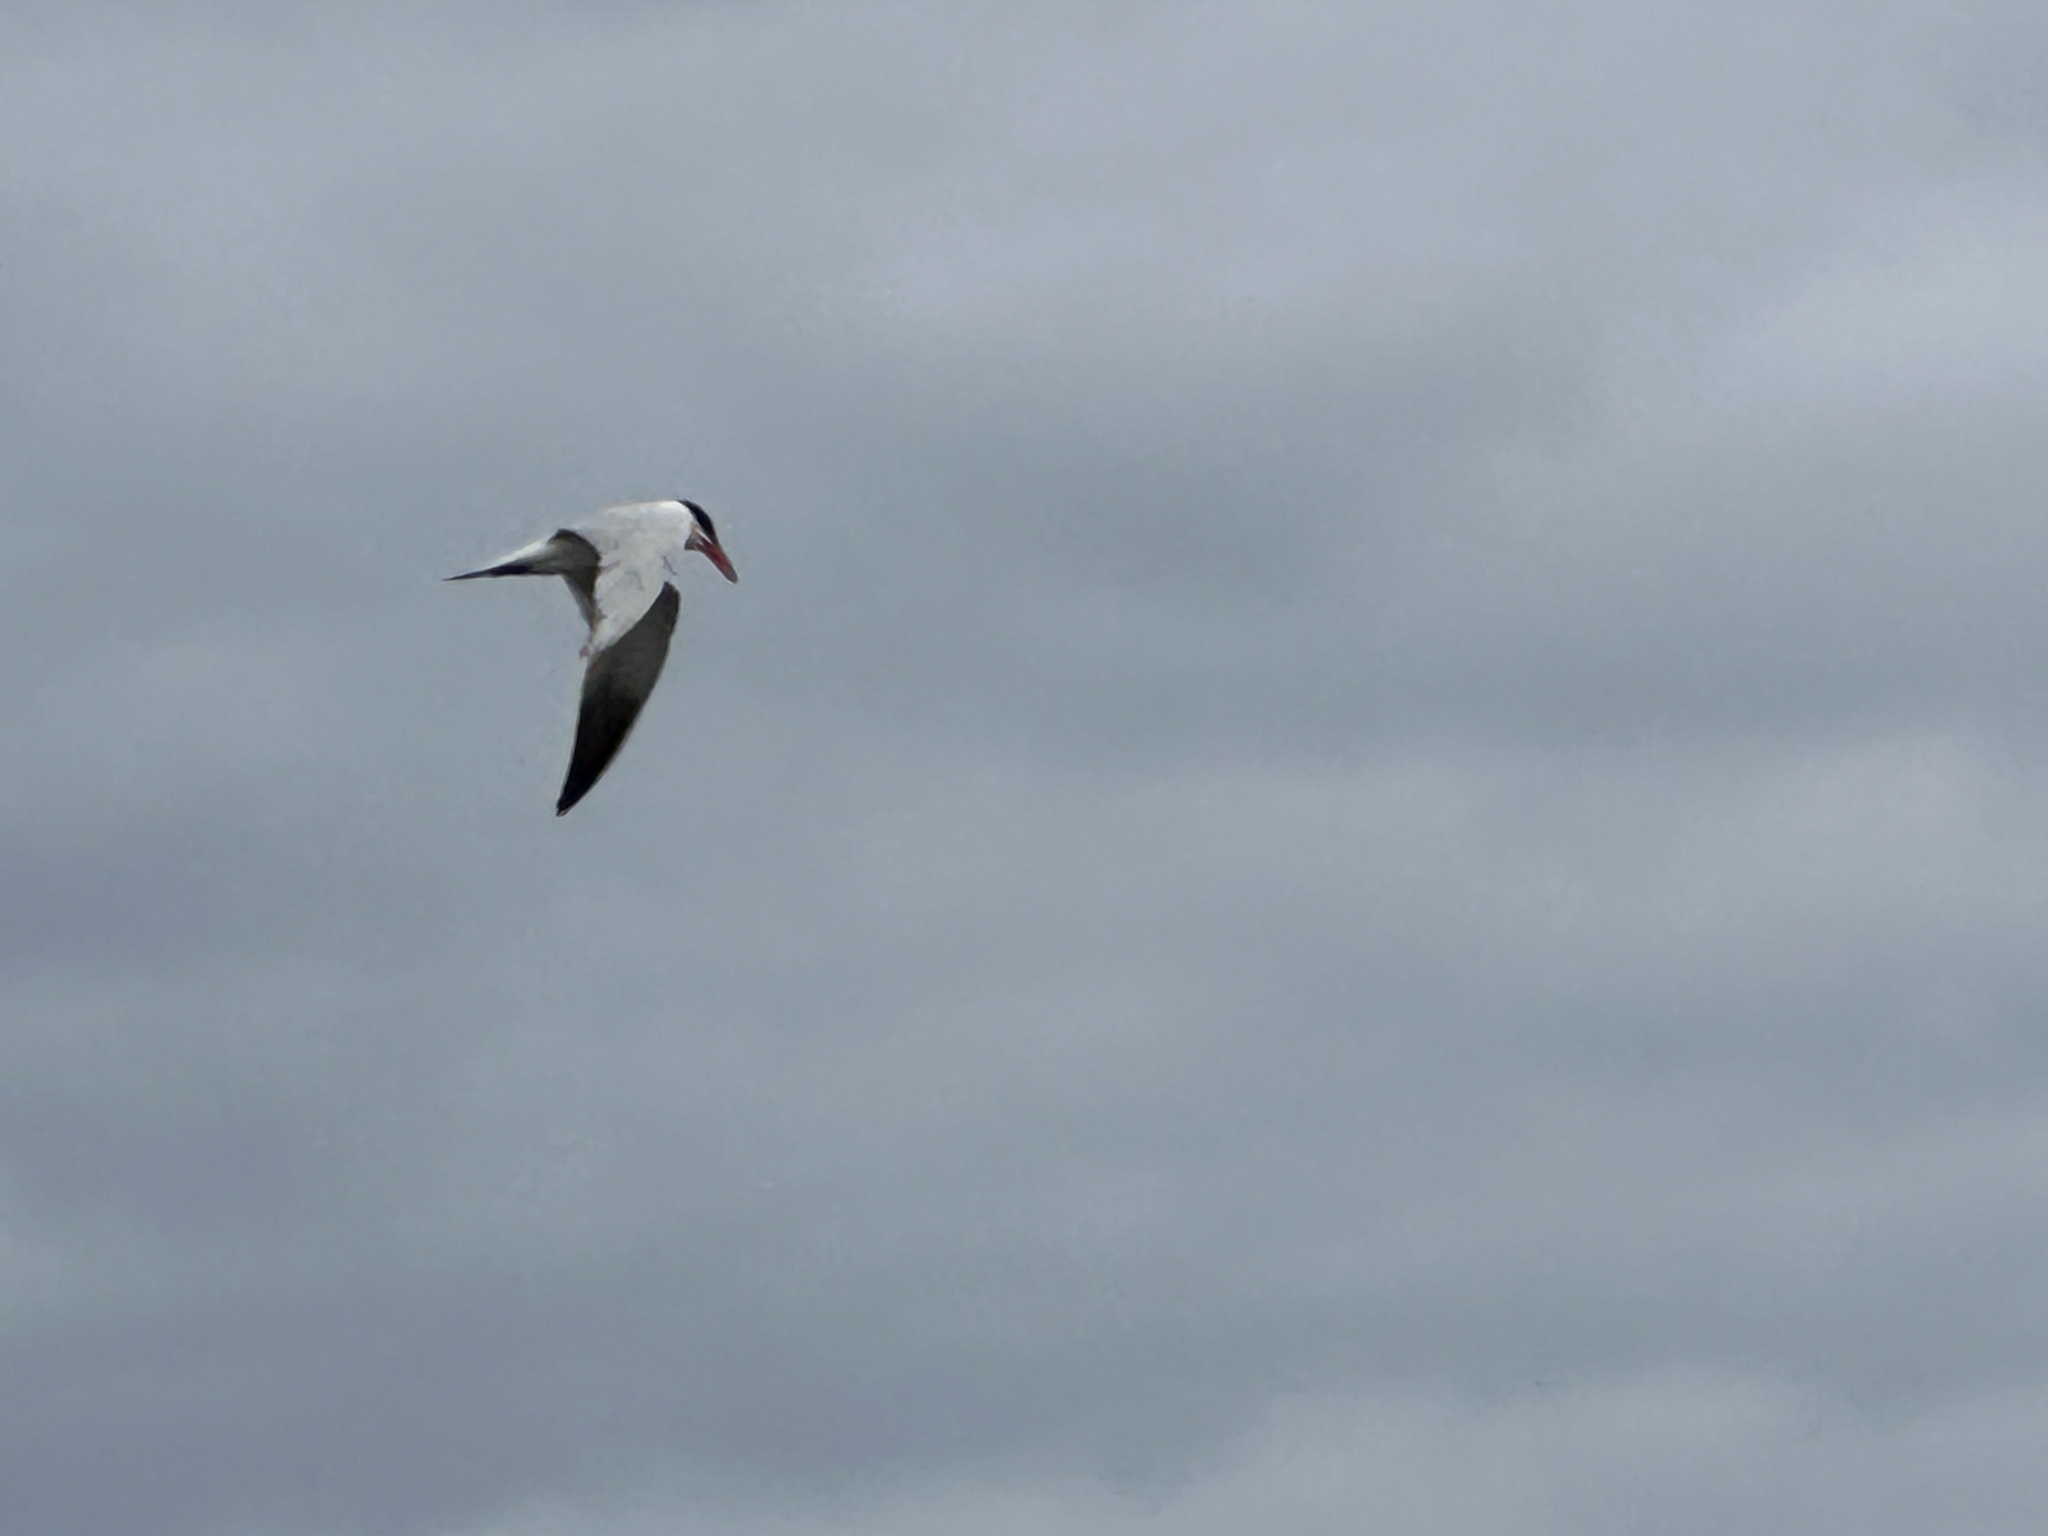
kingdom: Animalia
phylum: Chordata
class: Aves
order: Charadriiformes
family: Laridae
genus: Hydroprogne
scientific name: Hydroprogne caspia
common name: Caspian tern
